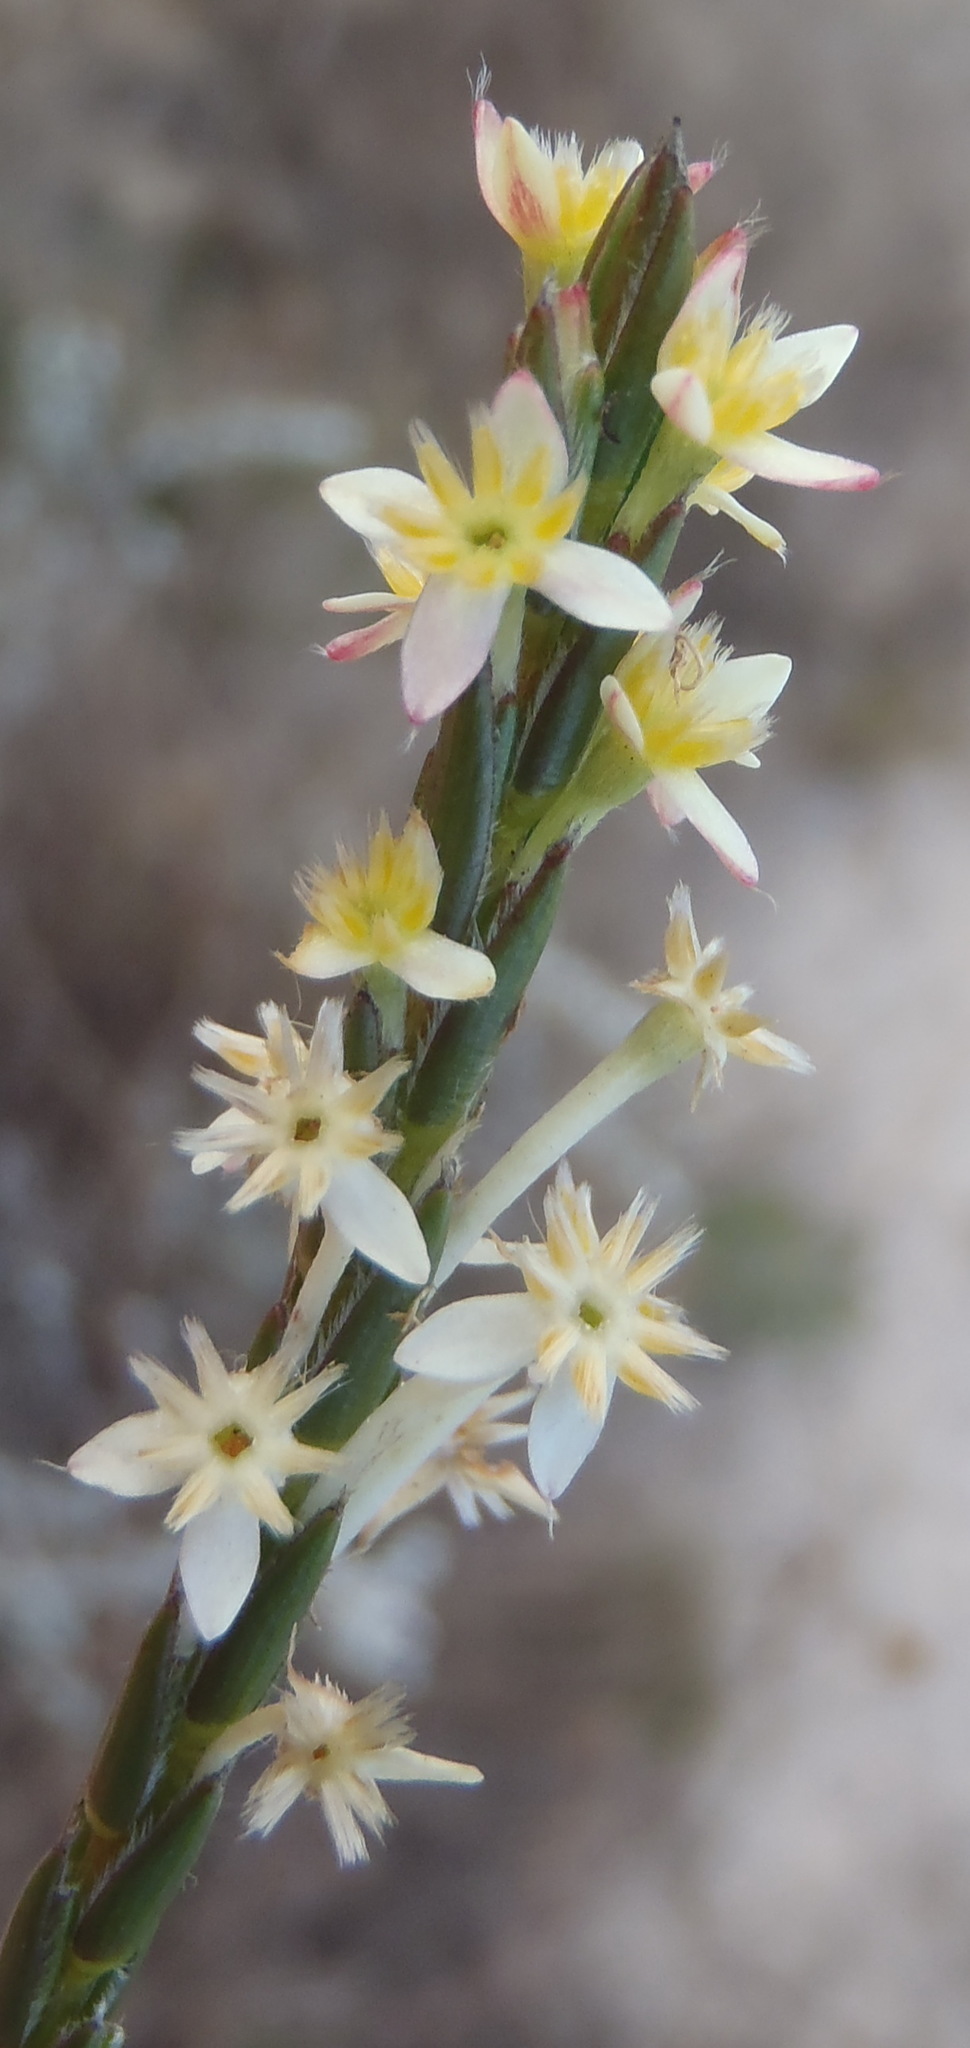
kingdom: Plantae
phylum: Tracheophyta
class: Magnoliopsida
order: Malvales
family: Thymelaeaceae
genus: Struthiola
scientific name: Struthiola ciliata
